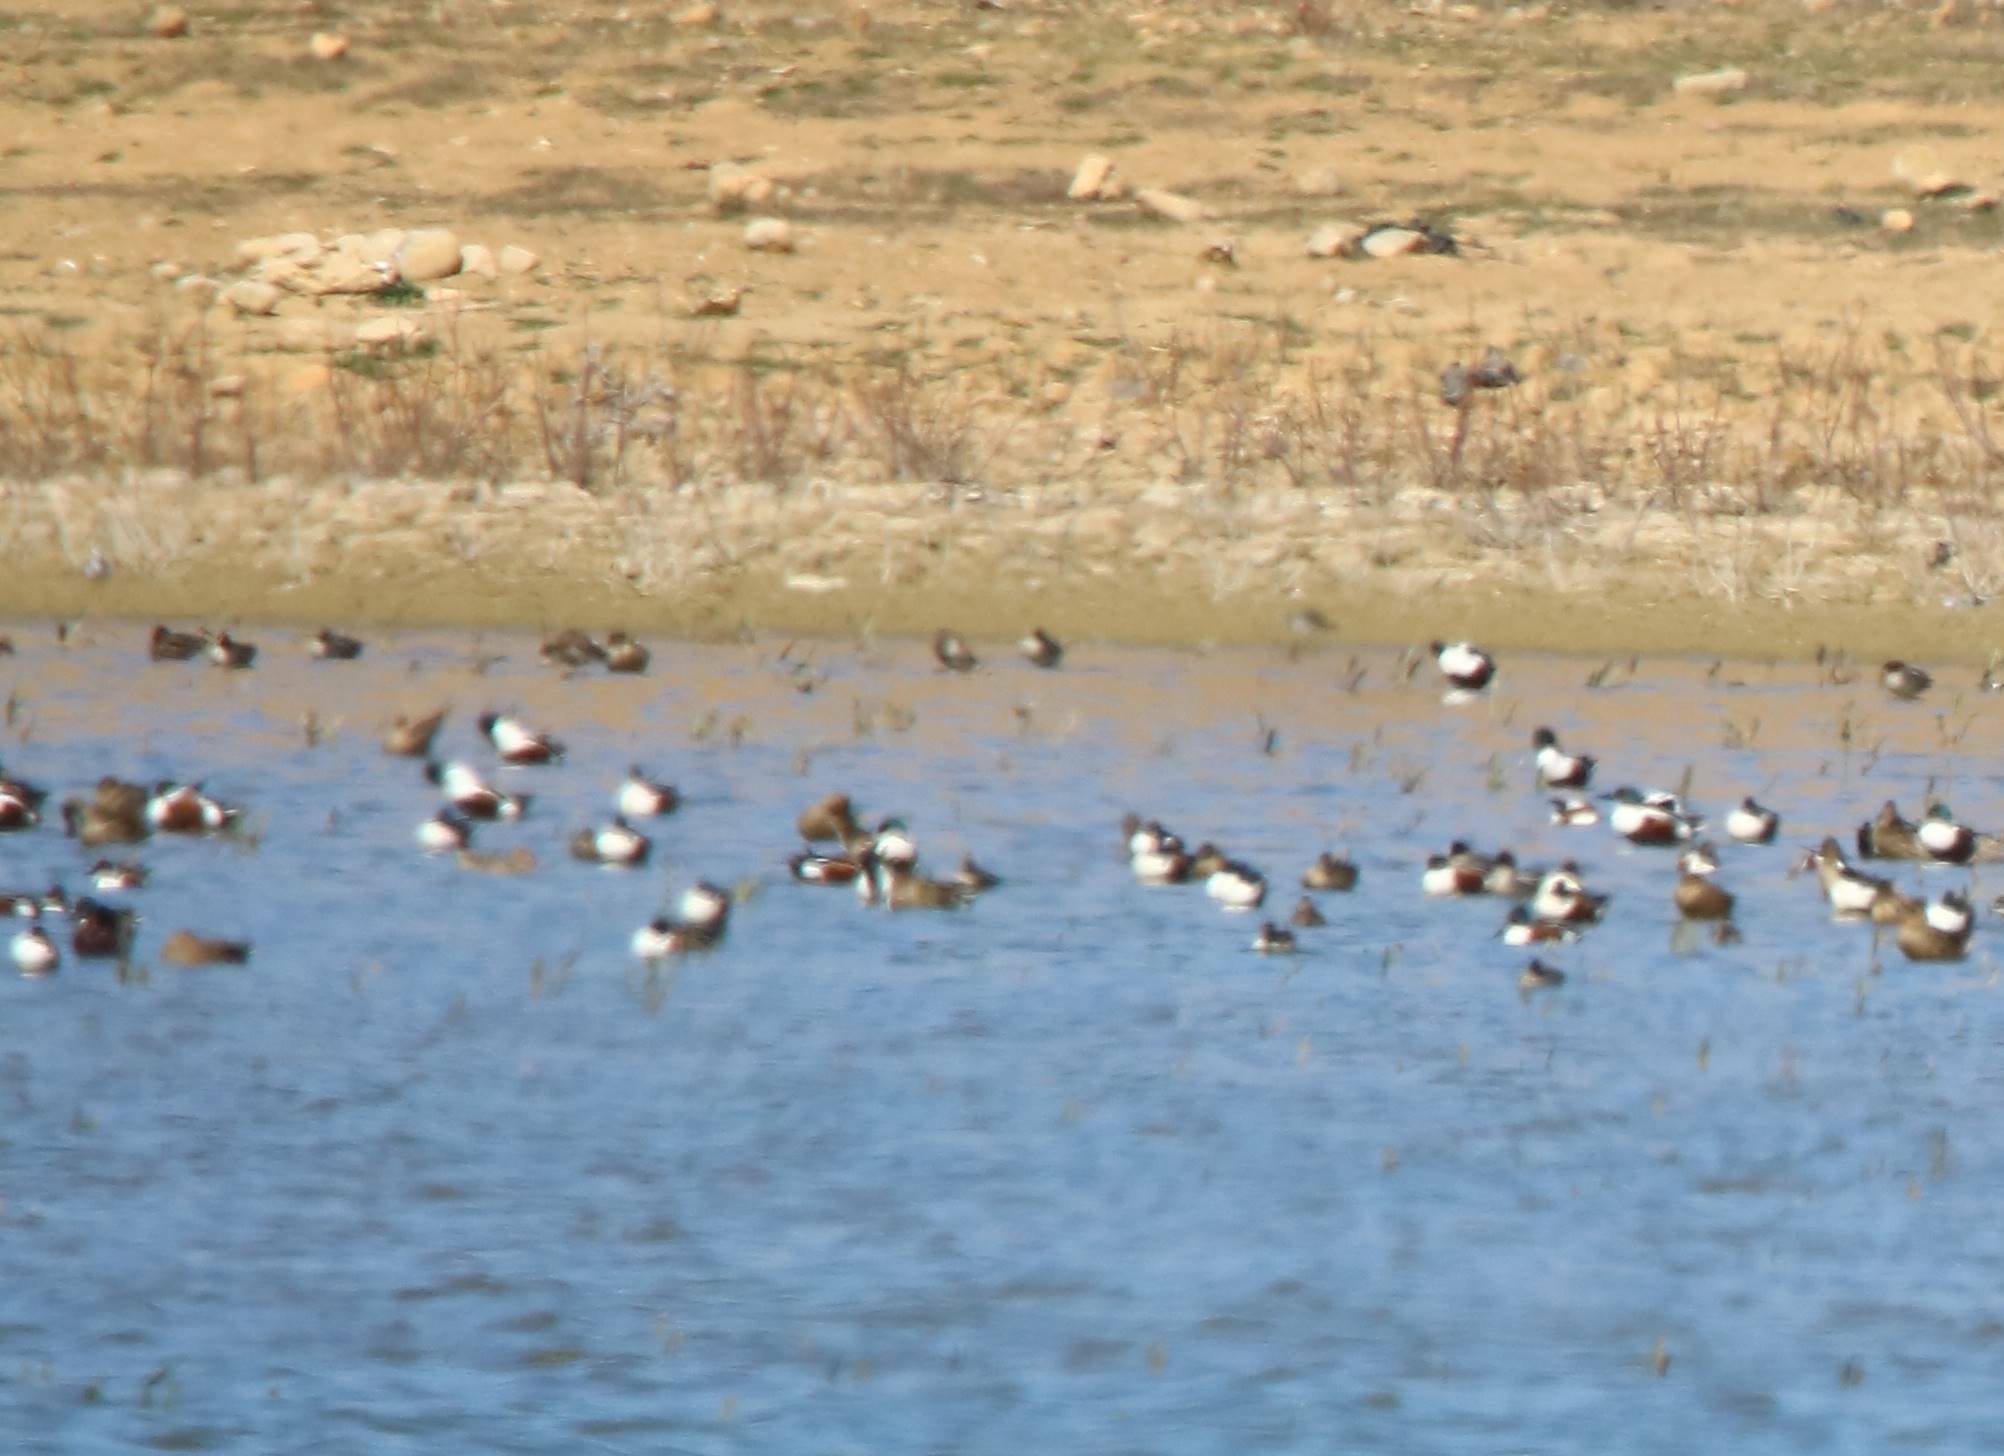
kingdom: Animalia
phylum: Chordata
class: Aves
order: Anseriformes
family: Anatidae
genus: Spatula
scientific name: Spatula clypeata
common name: Northern shoveler
